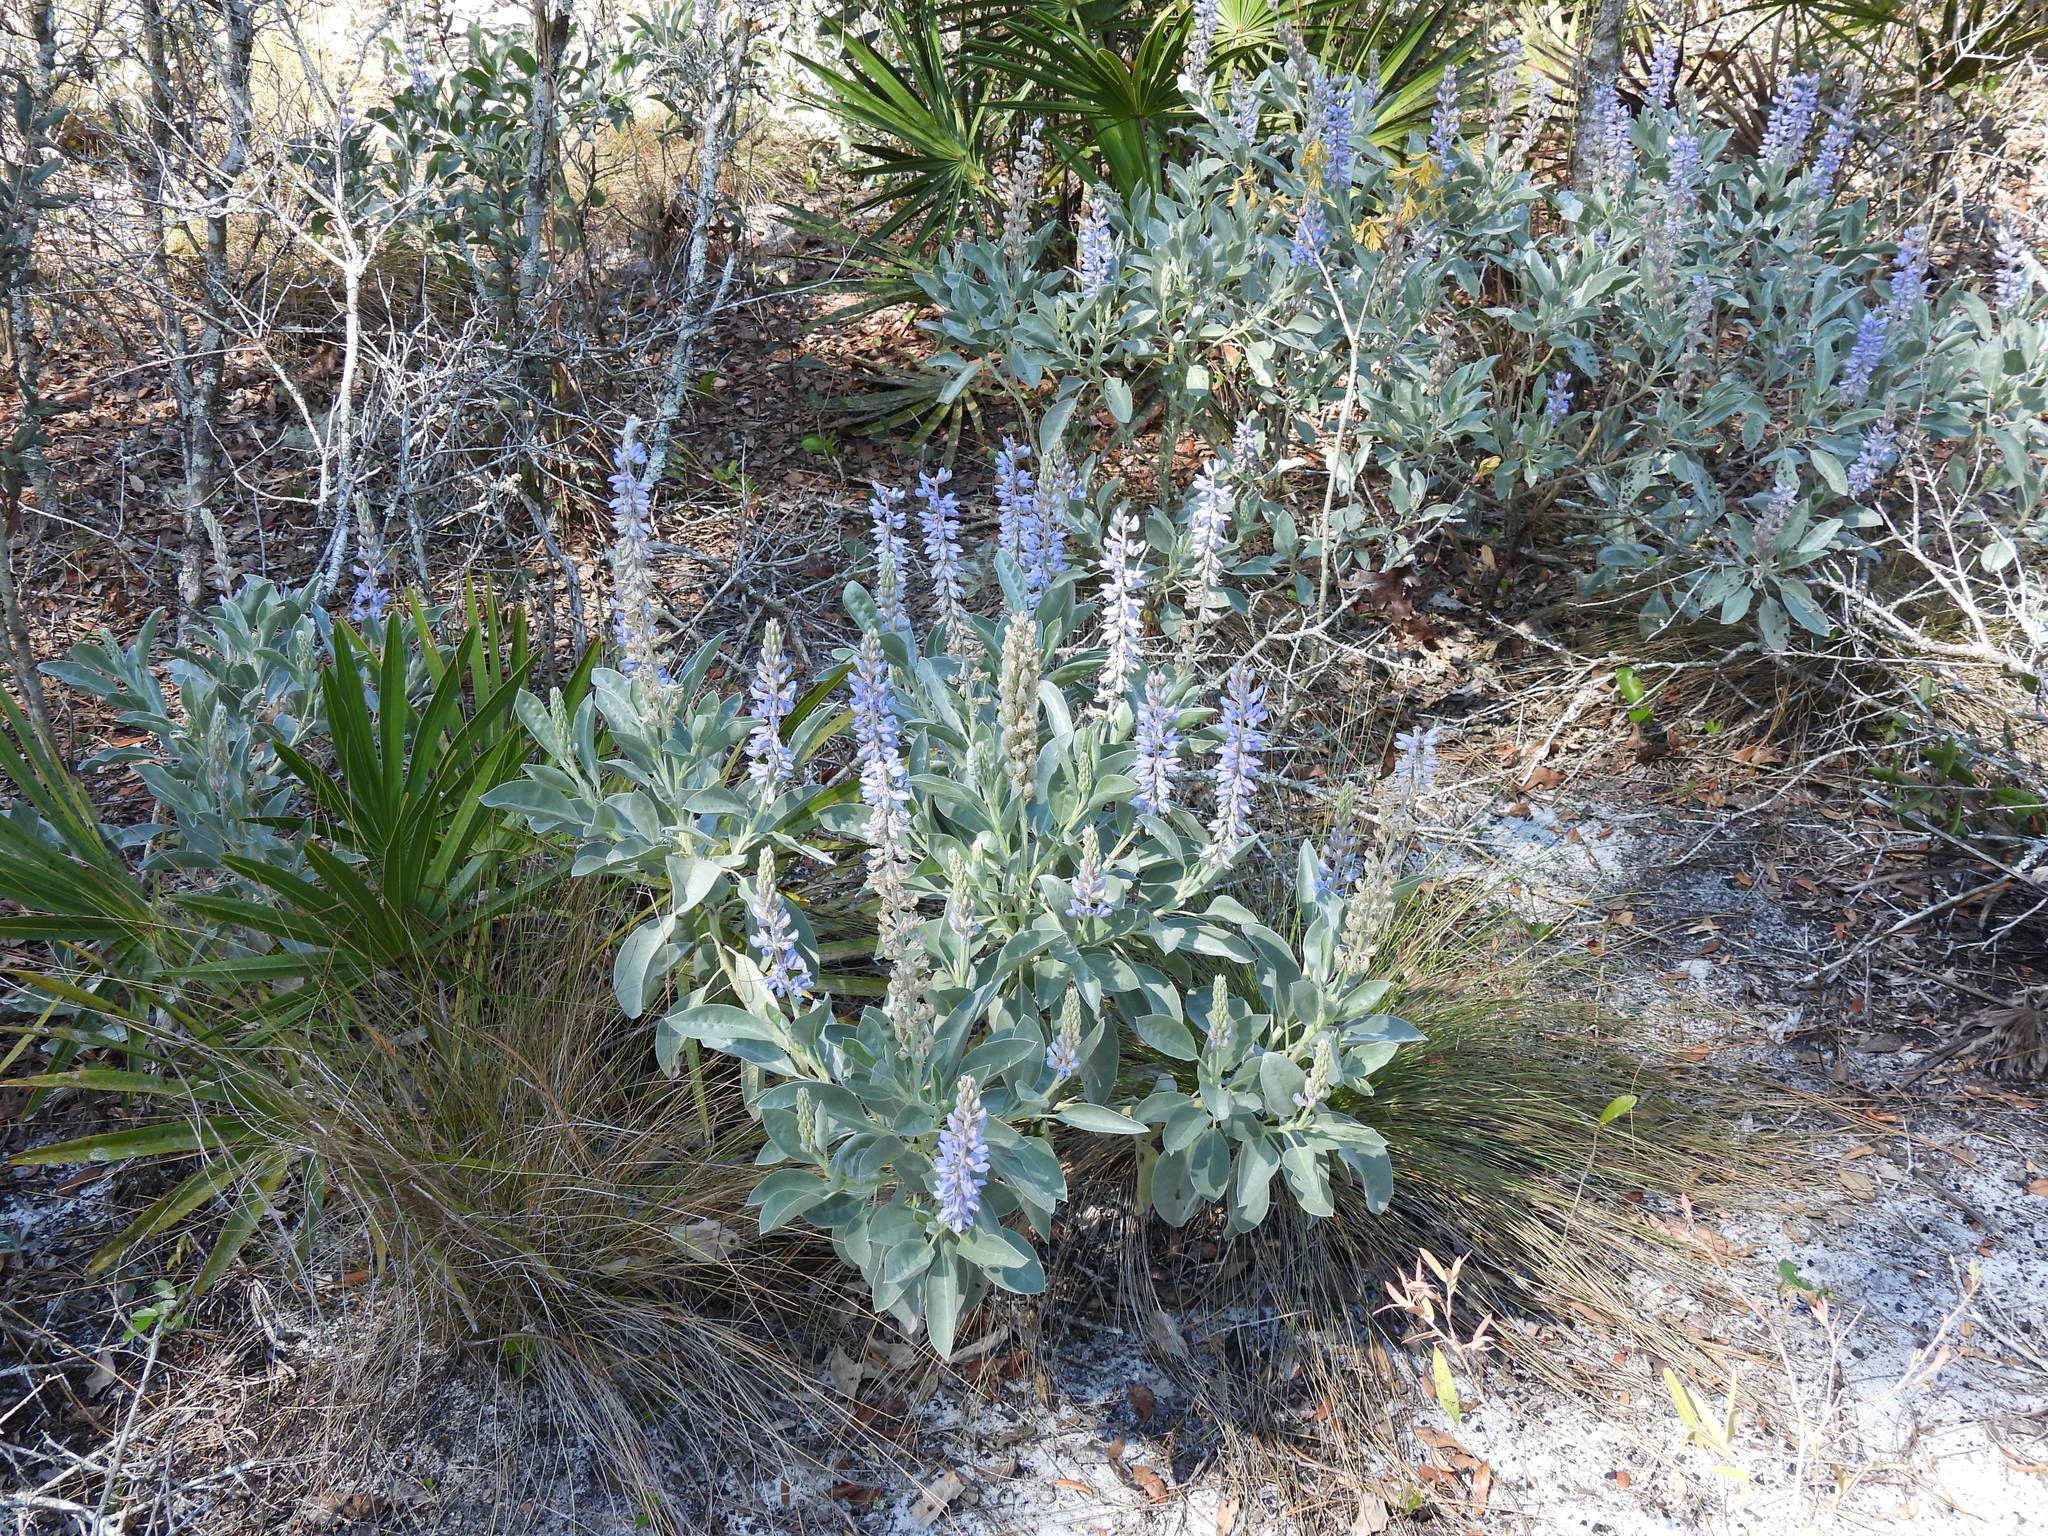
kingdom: Plantae
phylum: Tracheophyta
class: Magnoliopsida
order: Fabales
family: Fabaceae
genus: Lupinus
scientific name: Lupinus cumulicola
